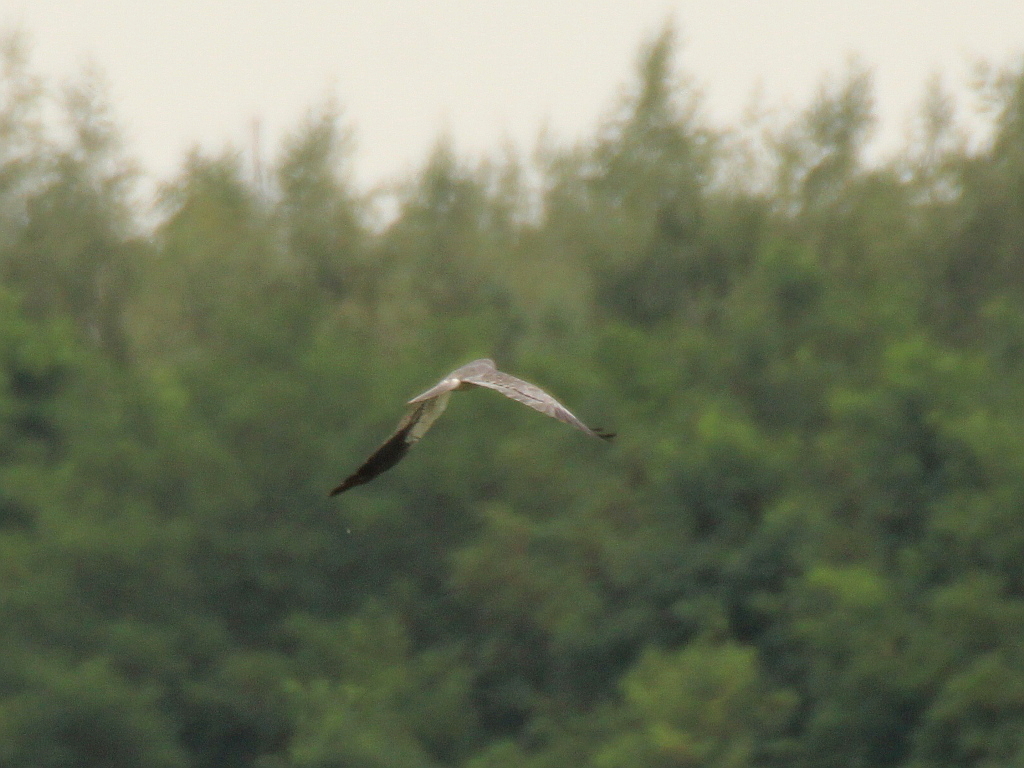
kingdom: Animalia
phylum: Chordata
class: Aves
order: Accipitriformes
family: Accipitridae
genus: Circus
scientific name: Circus pygargus
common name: Montagu's harrier
